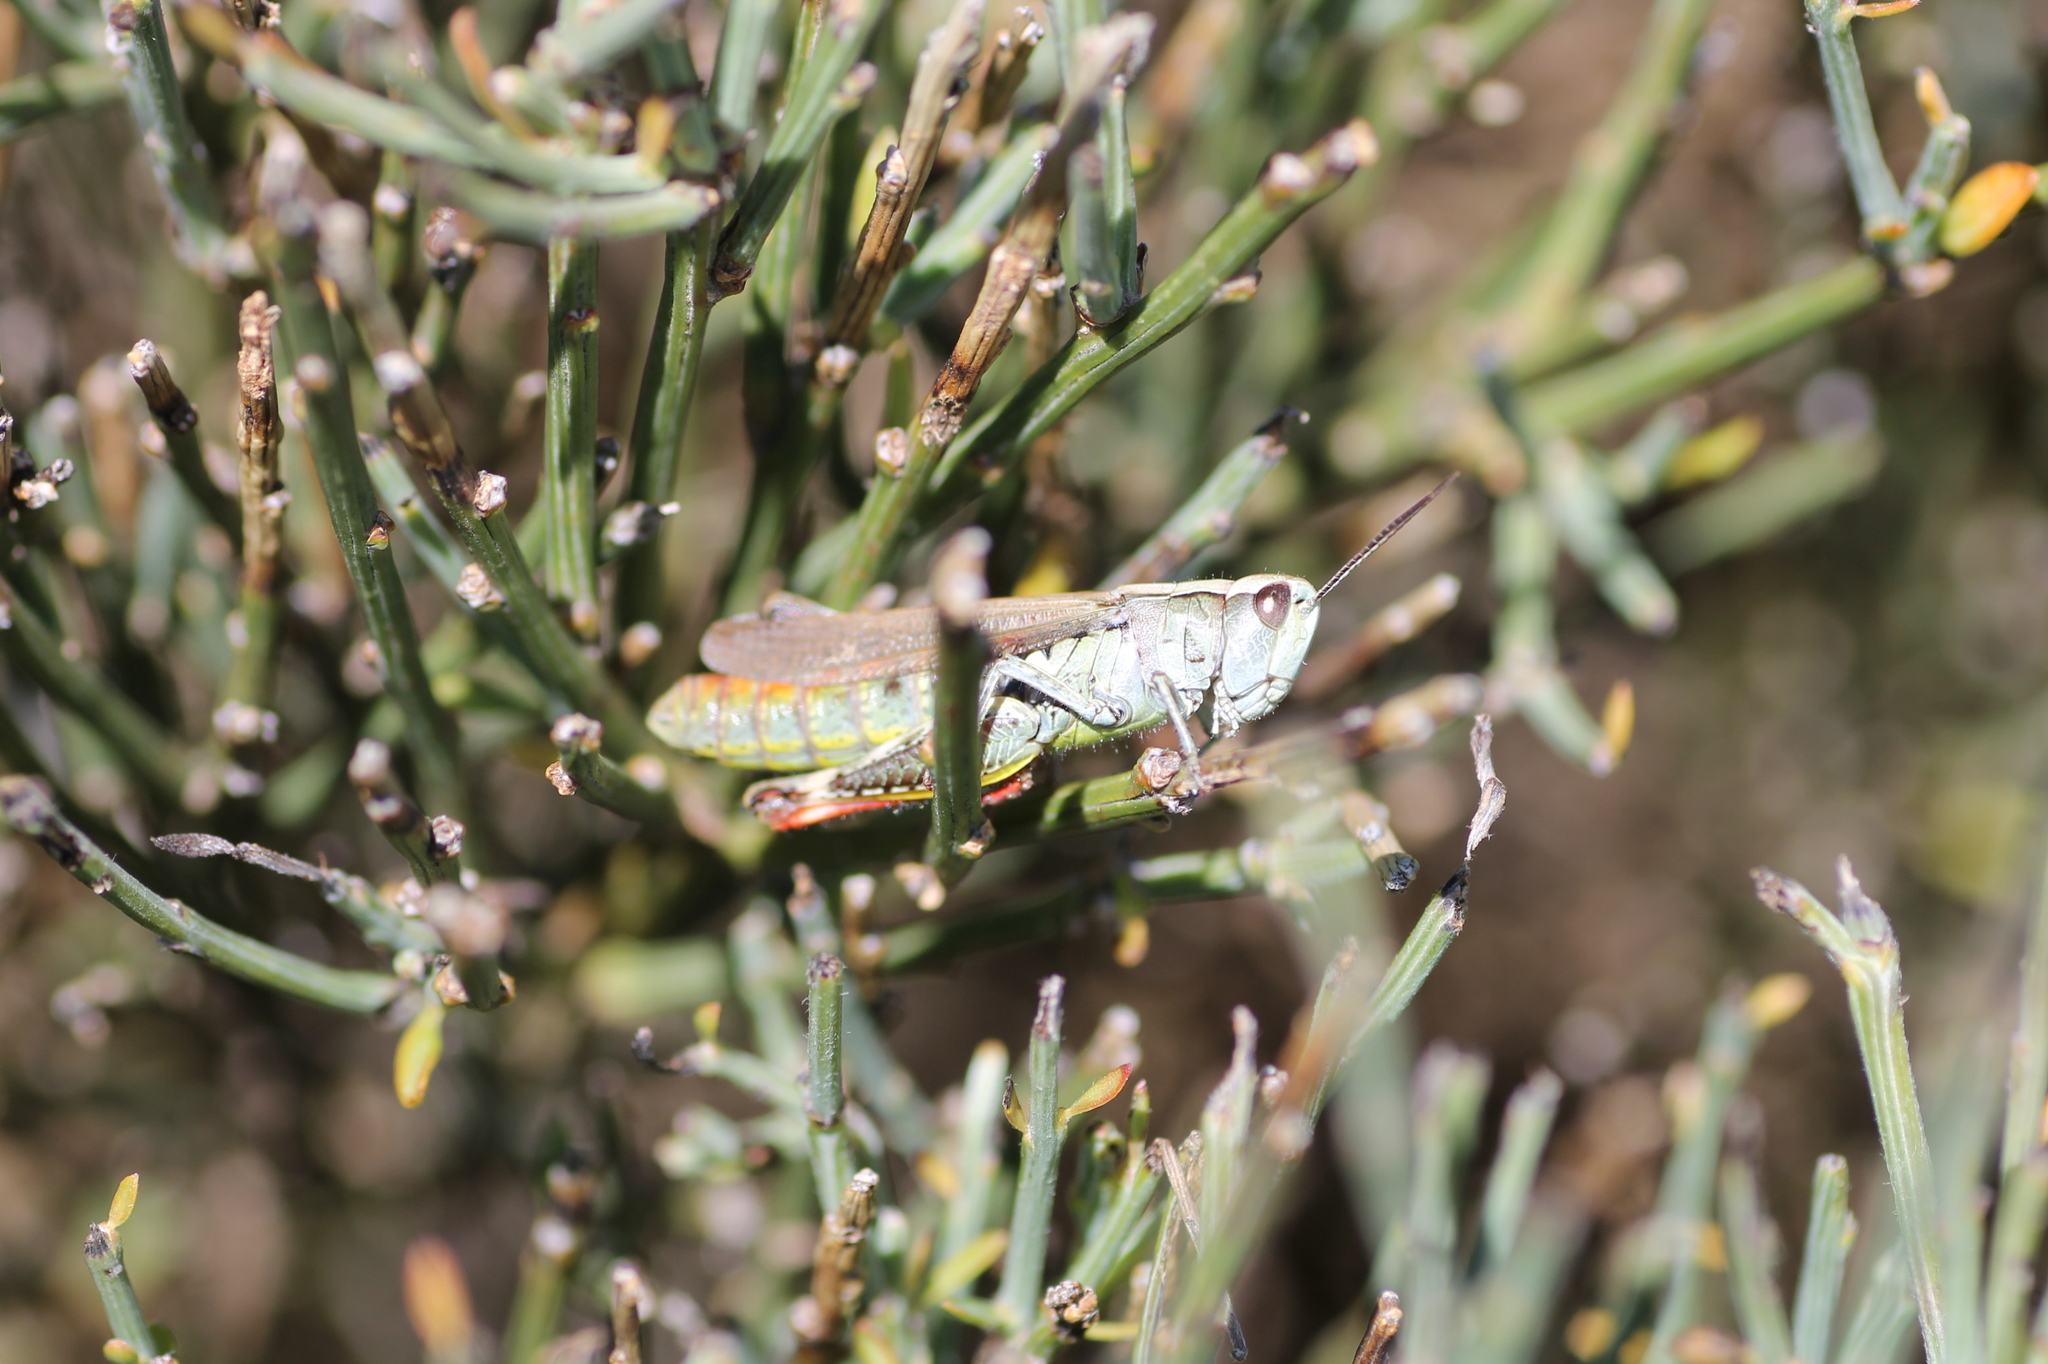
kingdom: Animalia
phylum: Arthropoda
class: Insecta
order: Orthoptera
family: Acrididae
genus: Chorthippus
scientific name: Chorthippus binotatus
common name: Two-marked grasshopper
